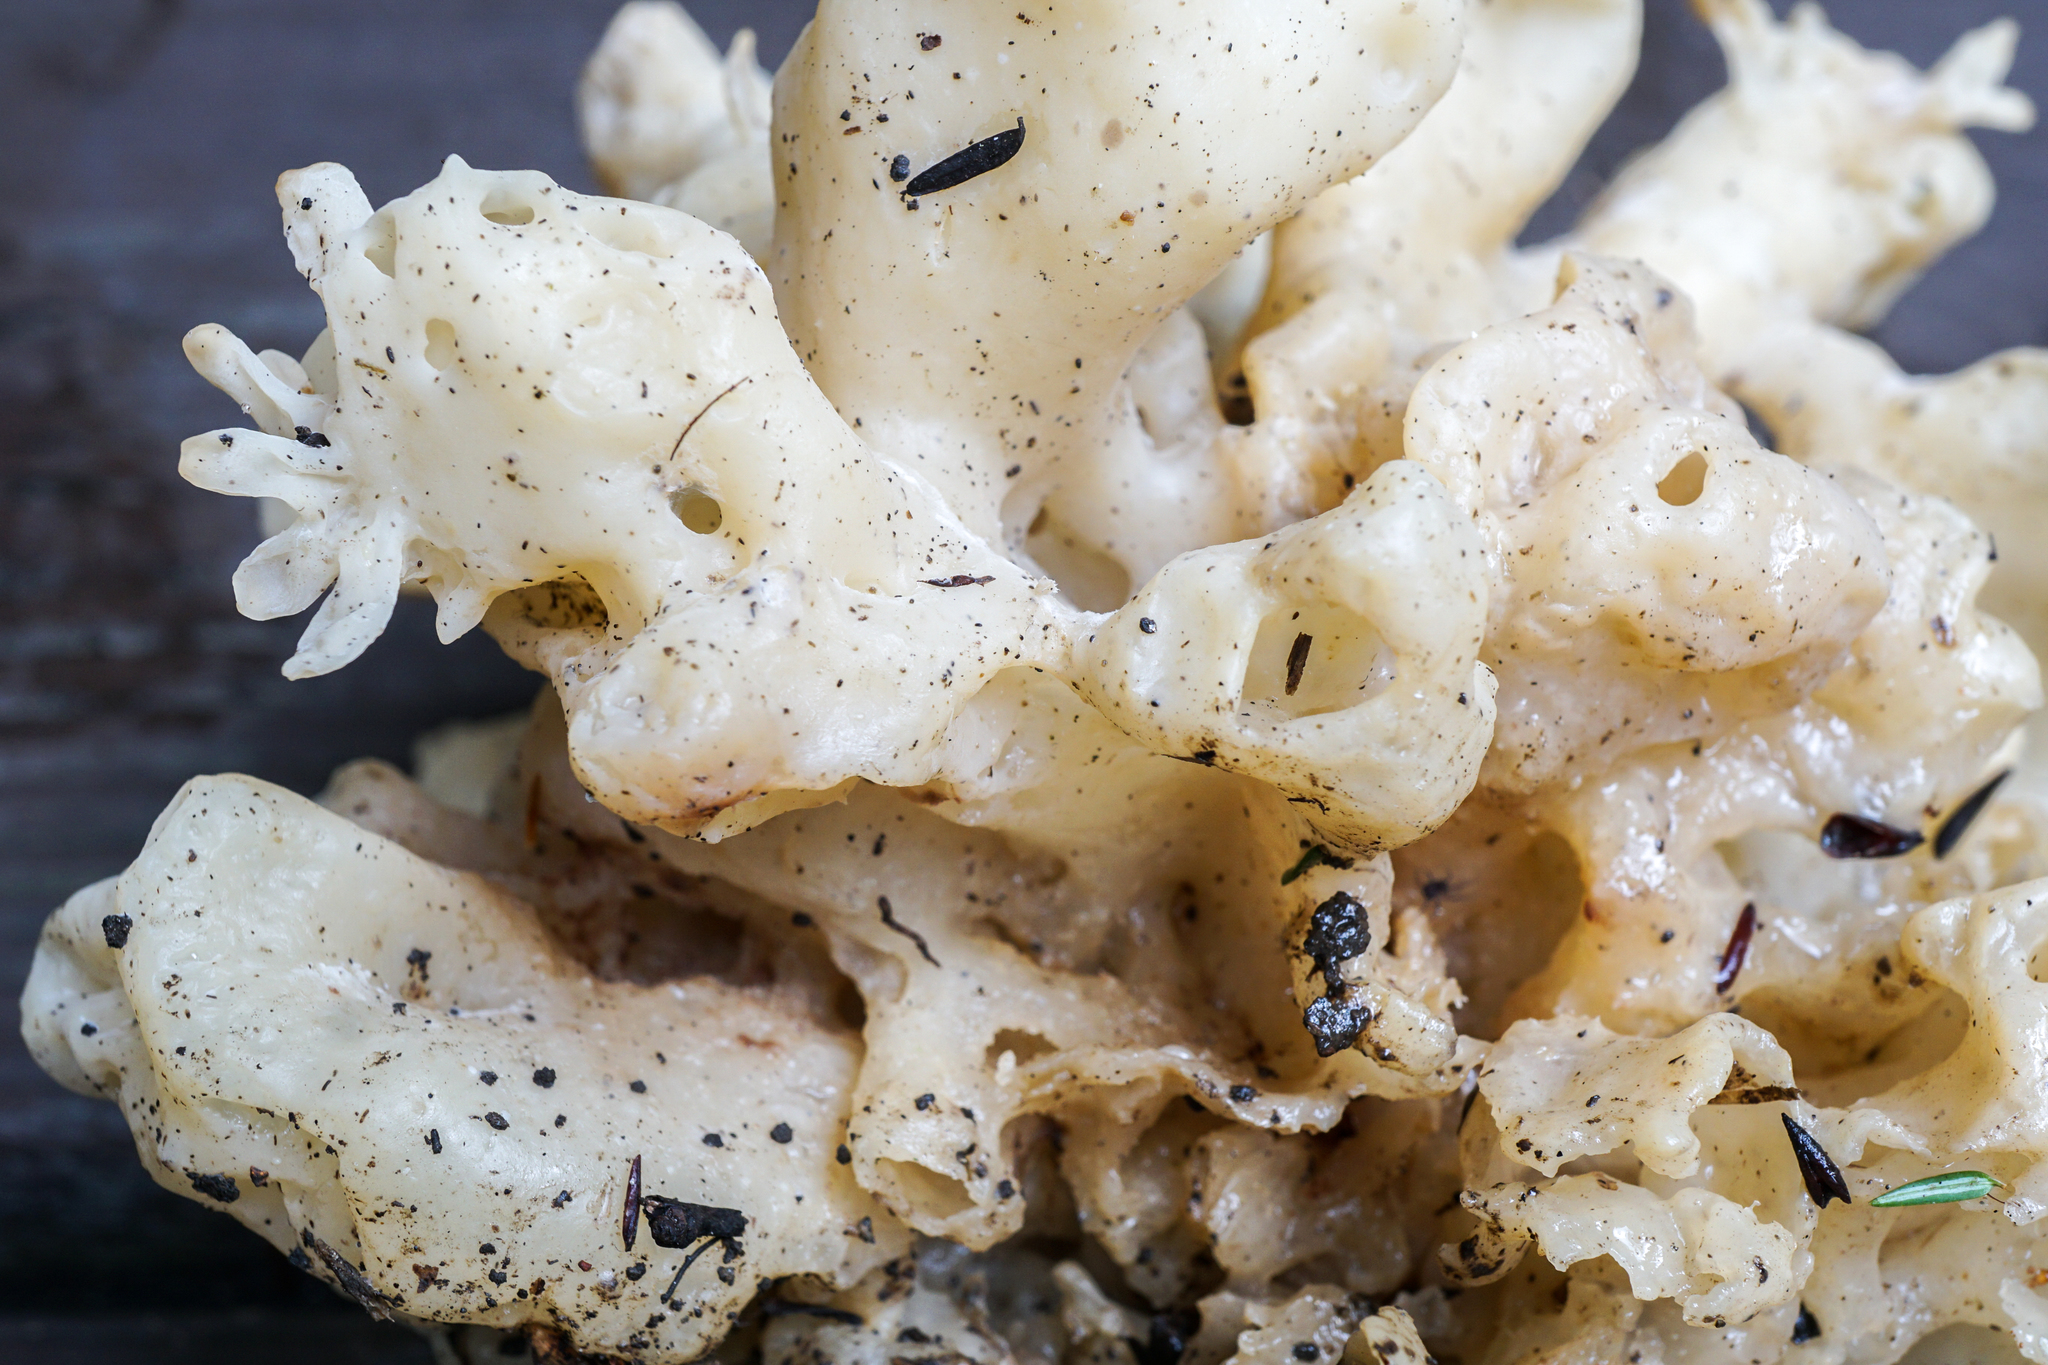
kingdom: Fungi
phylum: Basidiomycota
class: Agaricomycetes
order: Sebacinales
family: Sebacinaceae
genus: Sebacina
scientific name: Sebacina sparassoidea
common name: White coral jelly fungus
